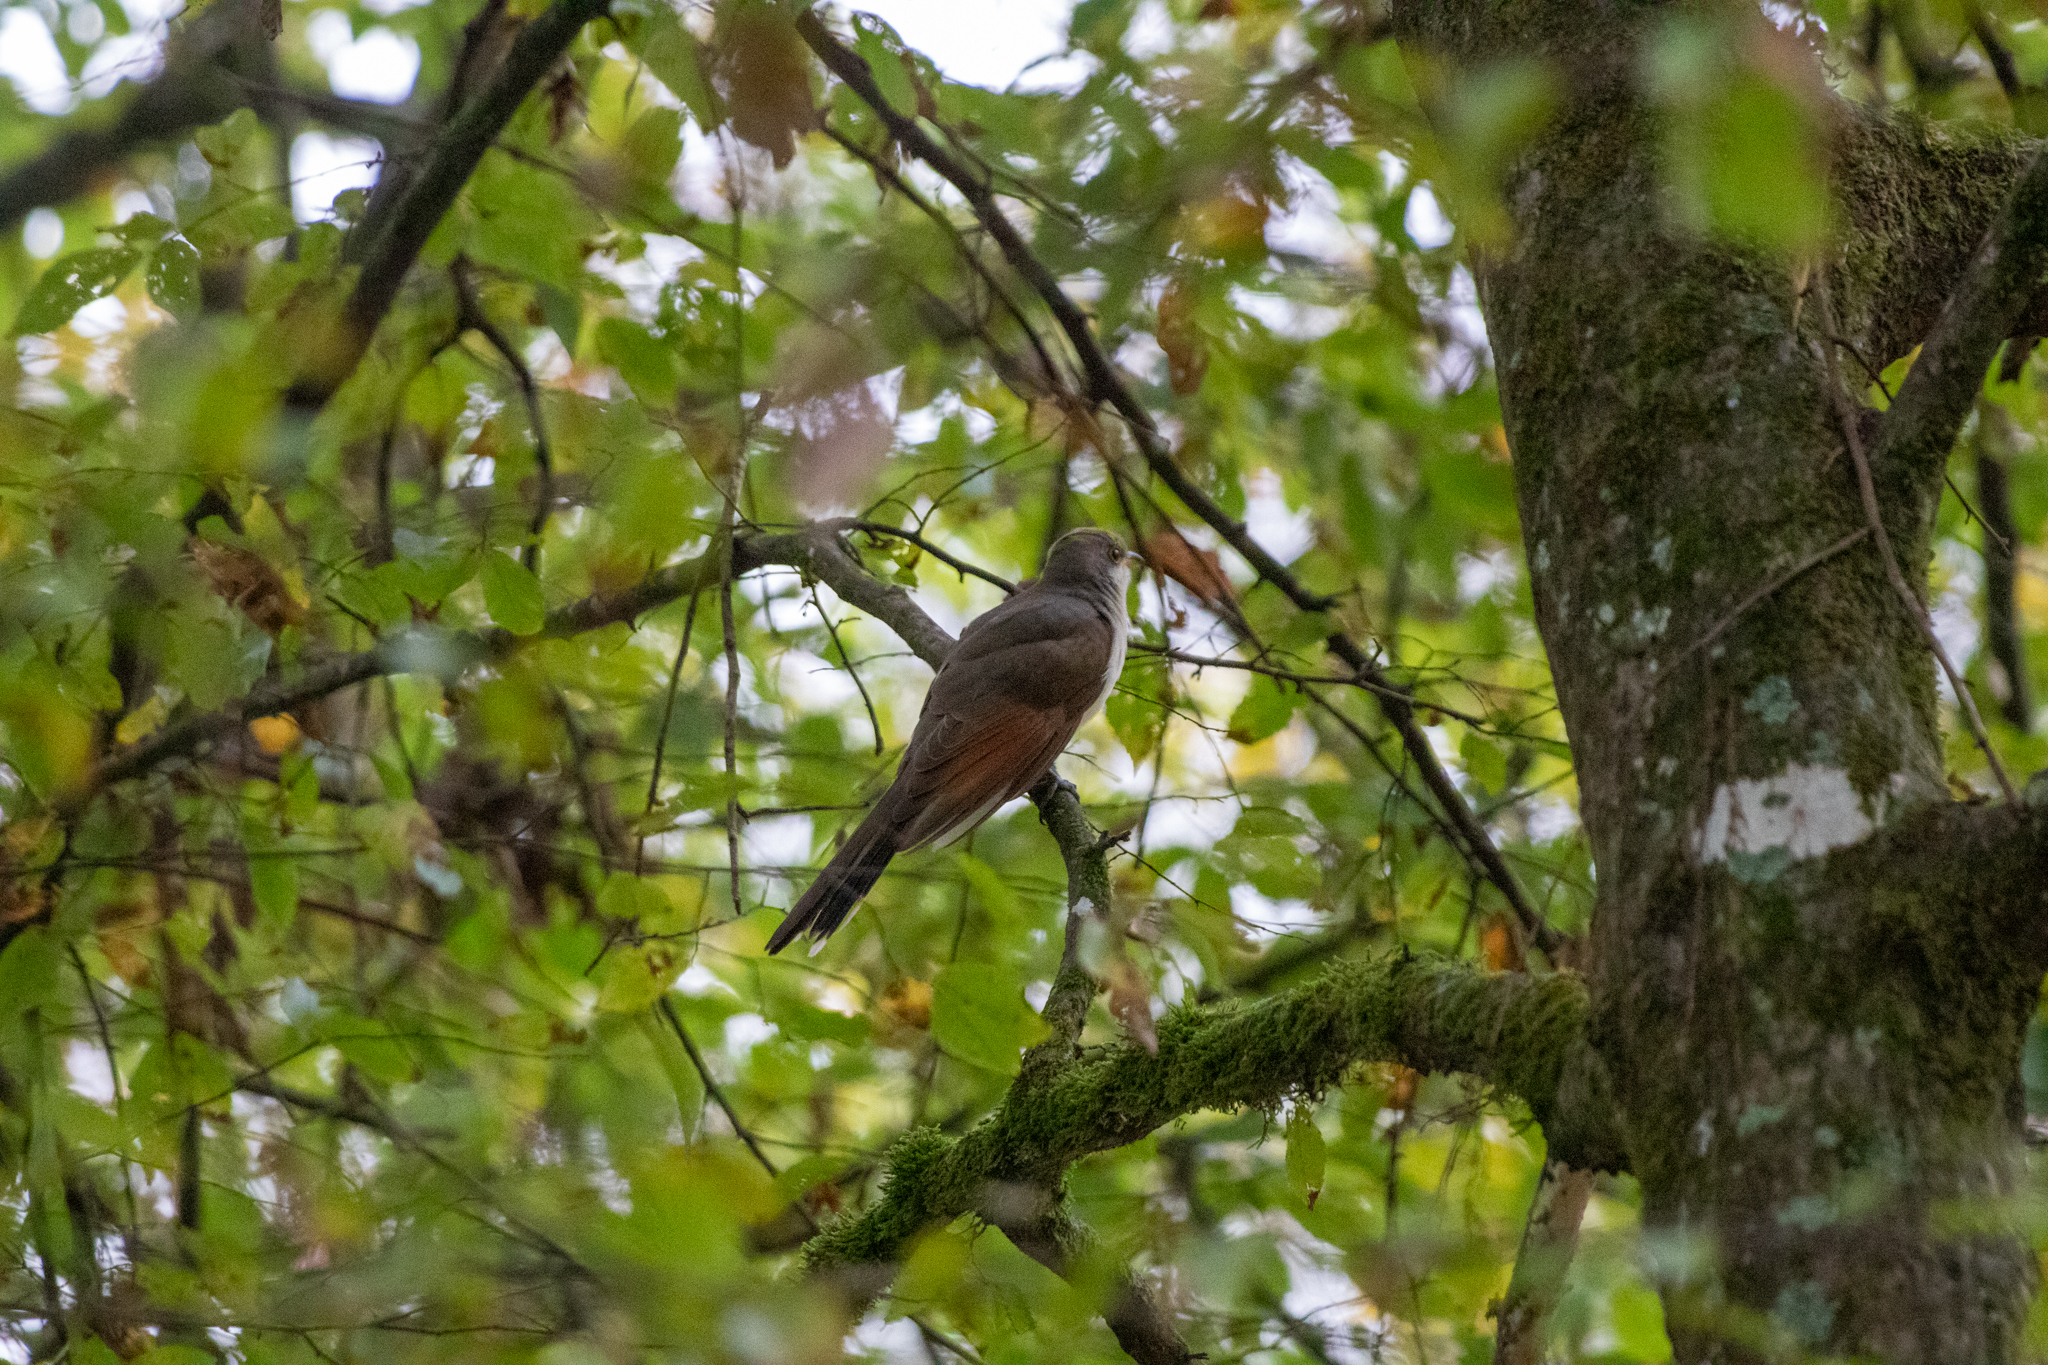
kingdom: Animalia
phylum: Chordata
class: Aves
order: Cuculiformes
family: Cuculidae
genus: Coccyzus
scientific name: Coccyzus americanus
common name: Yellow-billed cuckoo
